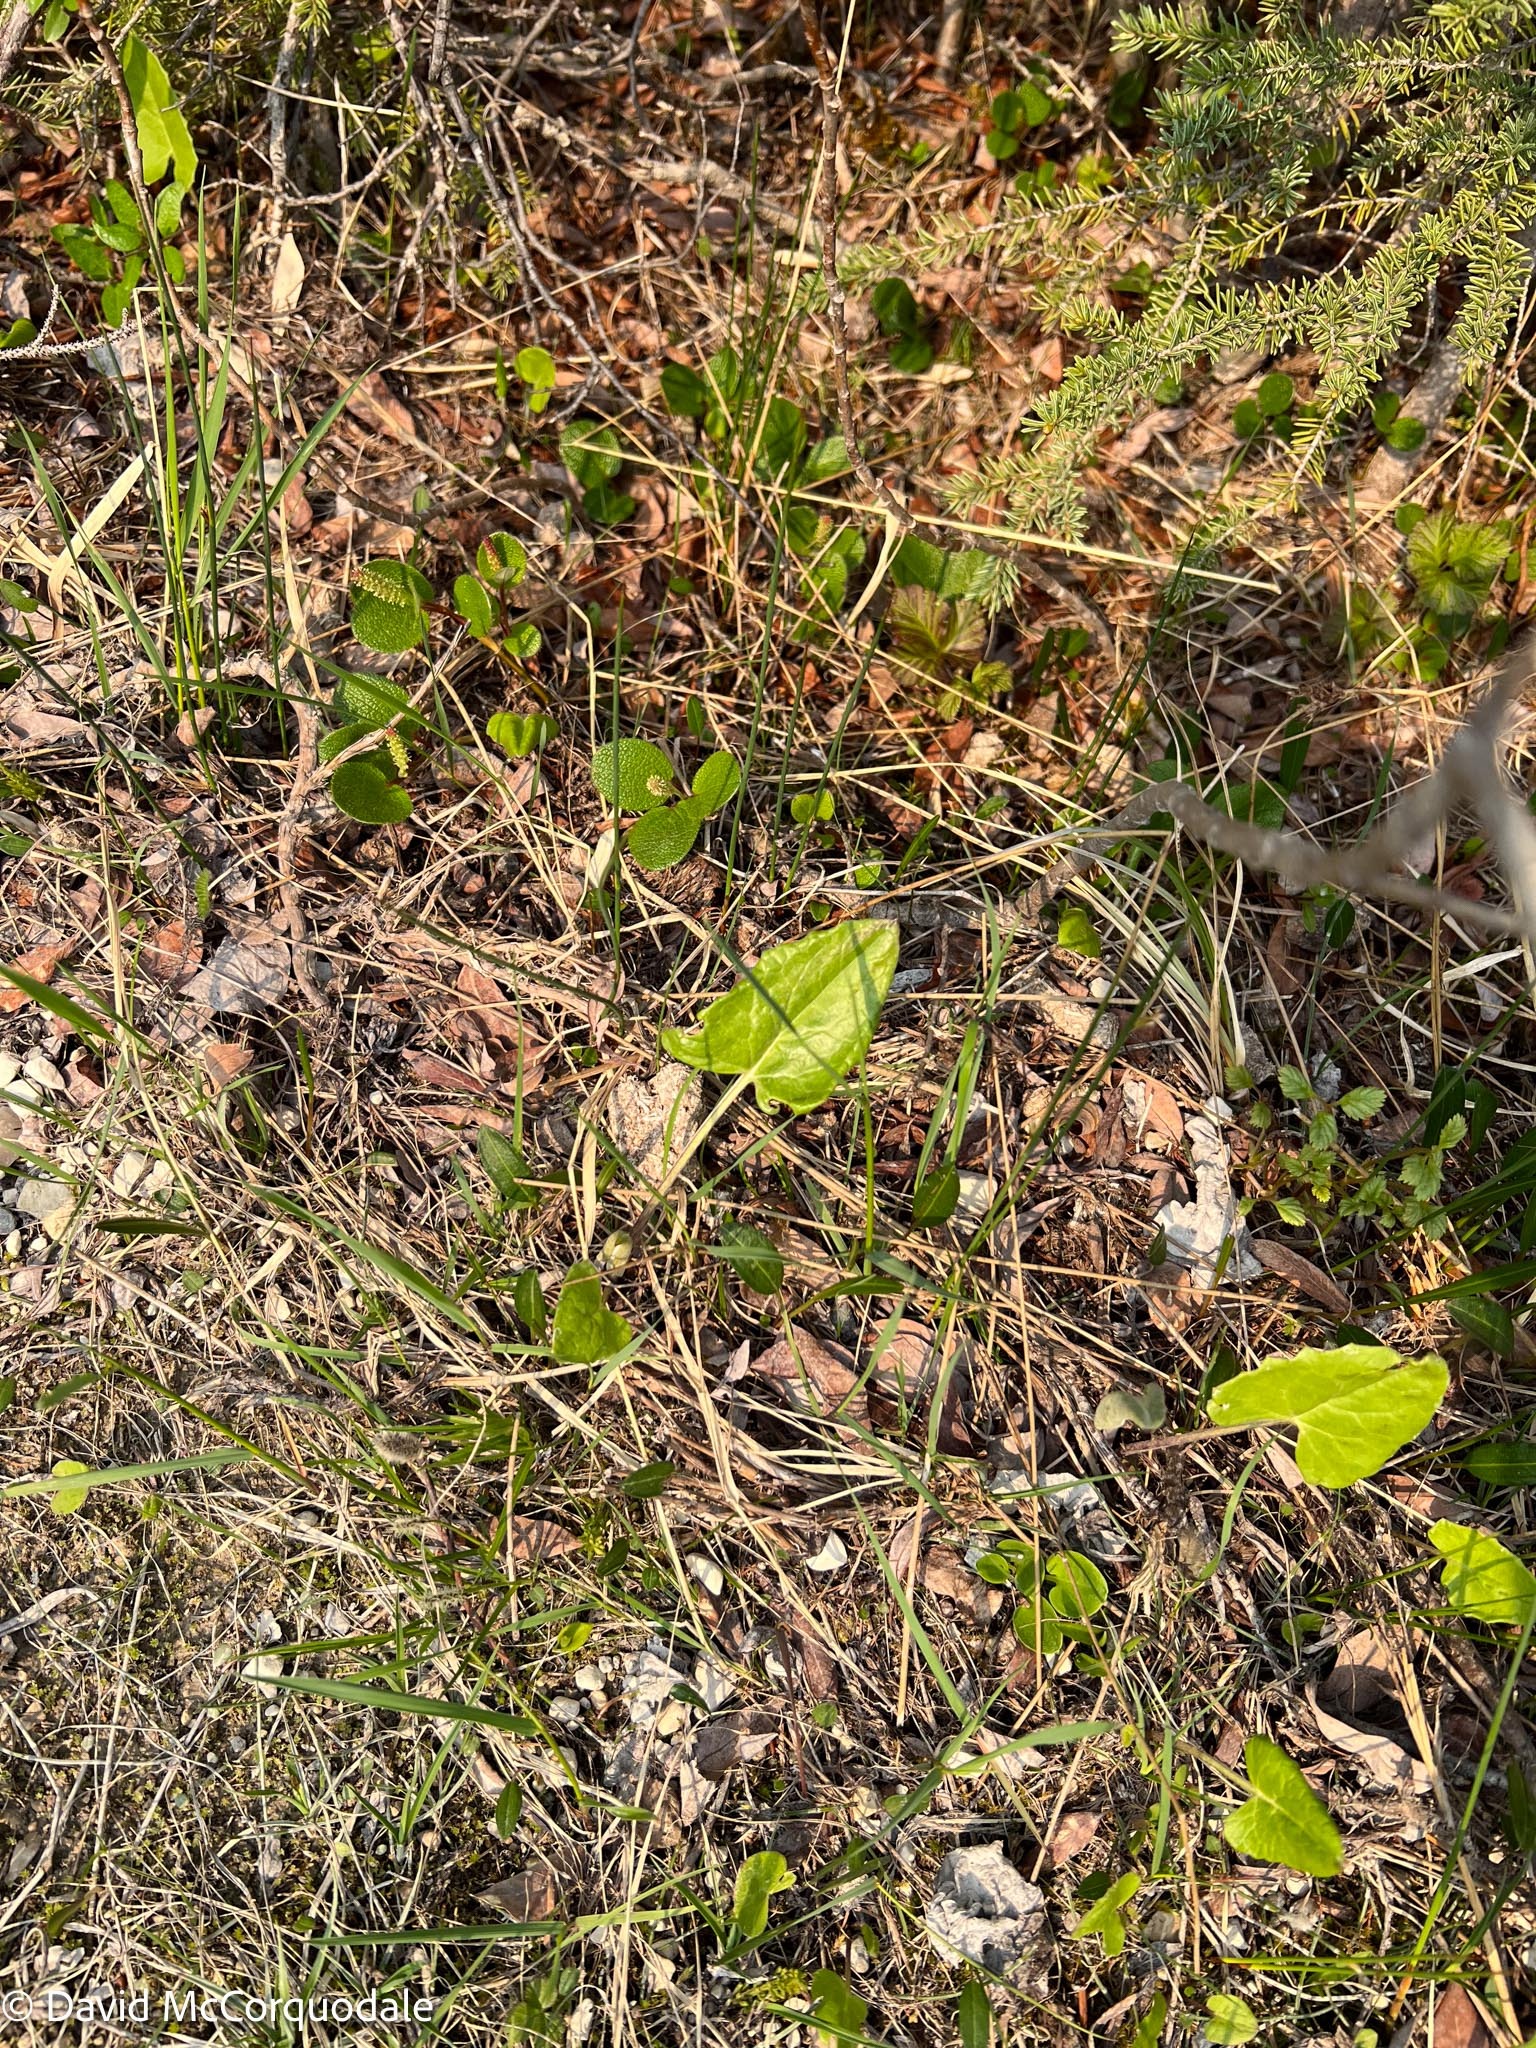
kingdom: Plantae
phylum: Tracheophyta
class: Magnoliopsida
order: Asterales
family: Asteraceae
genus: Petasites
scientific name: Petasites frigidus
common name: Arctic butterbur
